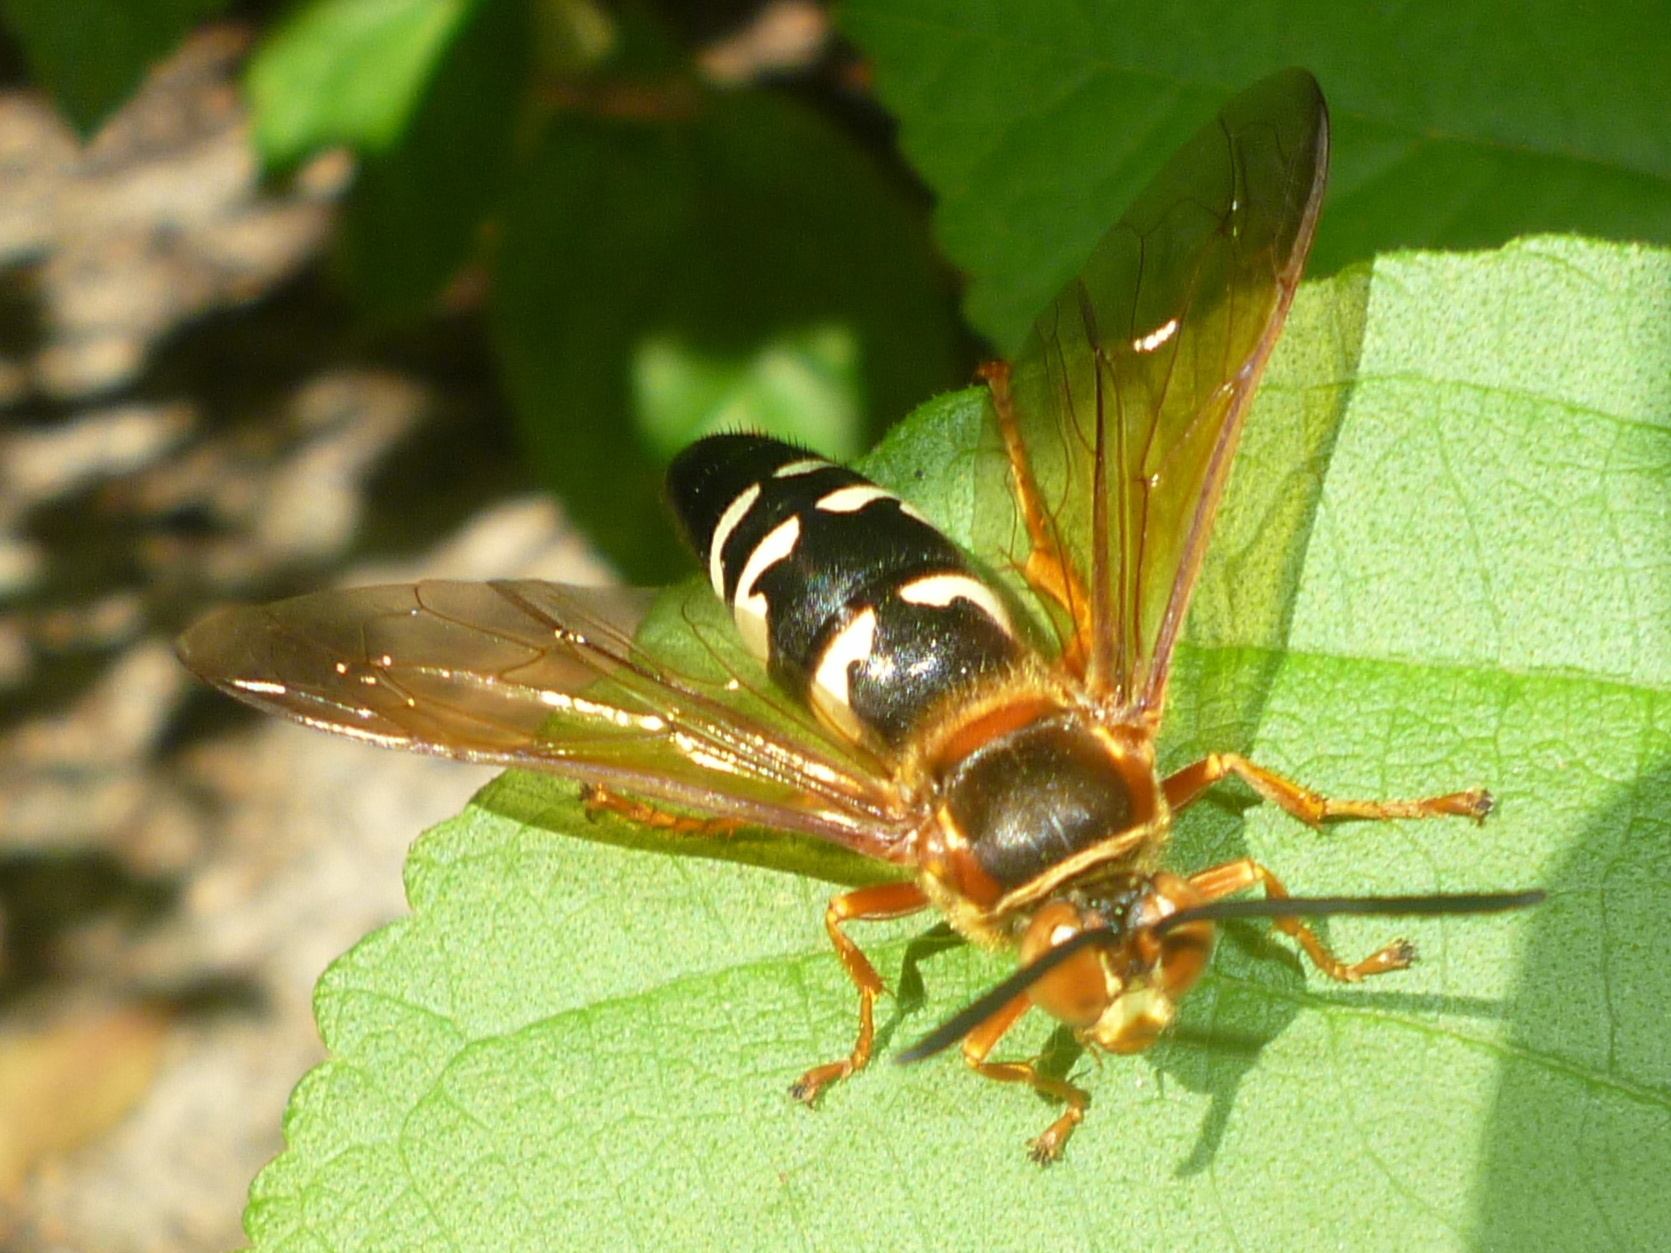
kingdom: Animalia
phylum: Arthropoda
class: Insecta
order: Hymenoptera
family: Crabronidae
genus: Sphecius
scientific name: Sphecius speciosus
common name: Cicada killer
